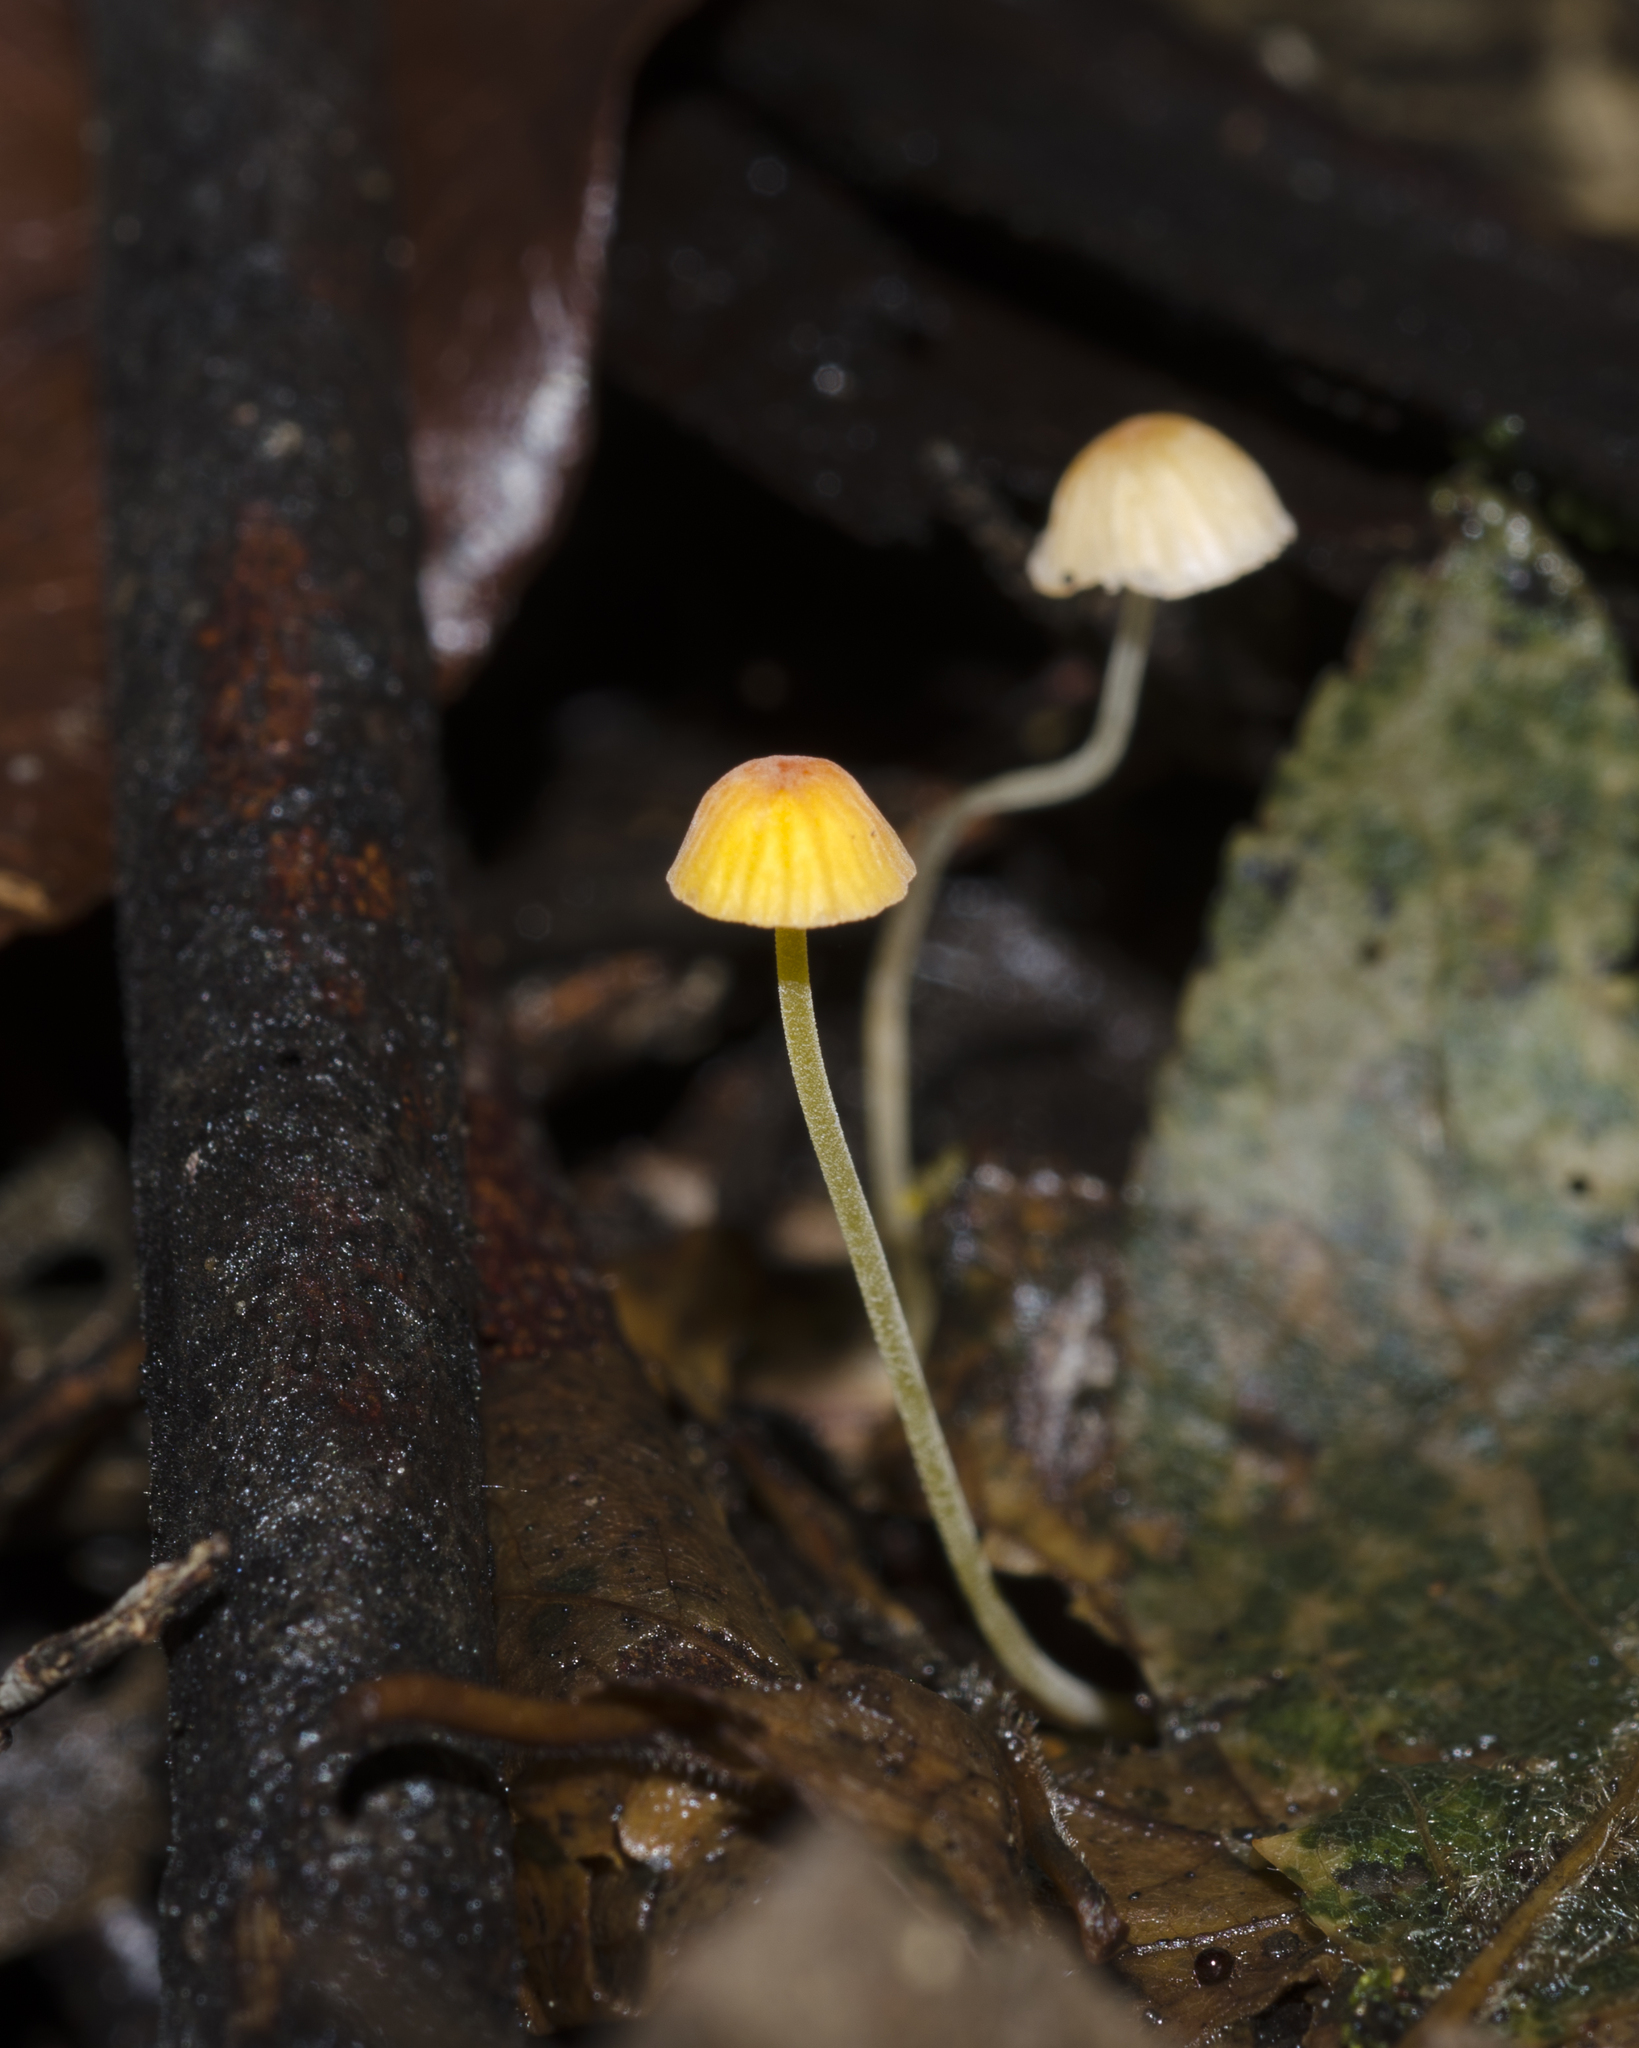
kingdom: Fungi
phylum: Basidiomycota
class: Agaricomycetes
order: Agaricales
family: Mycenaceae
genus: Mycena
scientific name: Mycena acicula
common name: Orange bonnet
